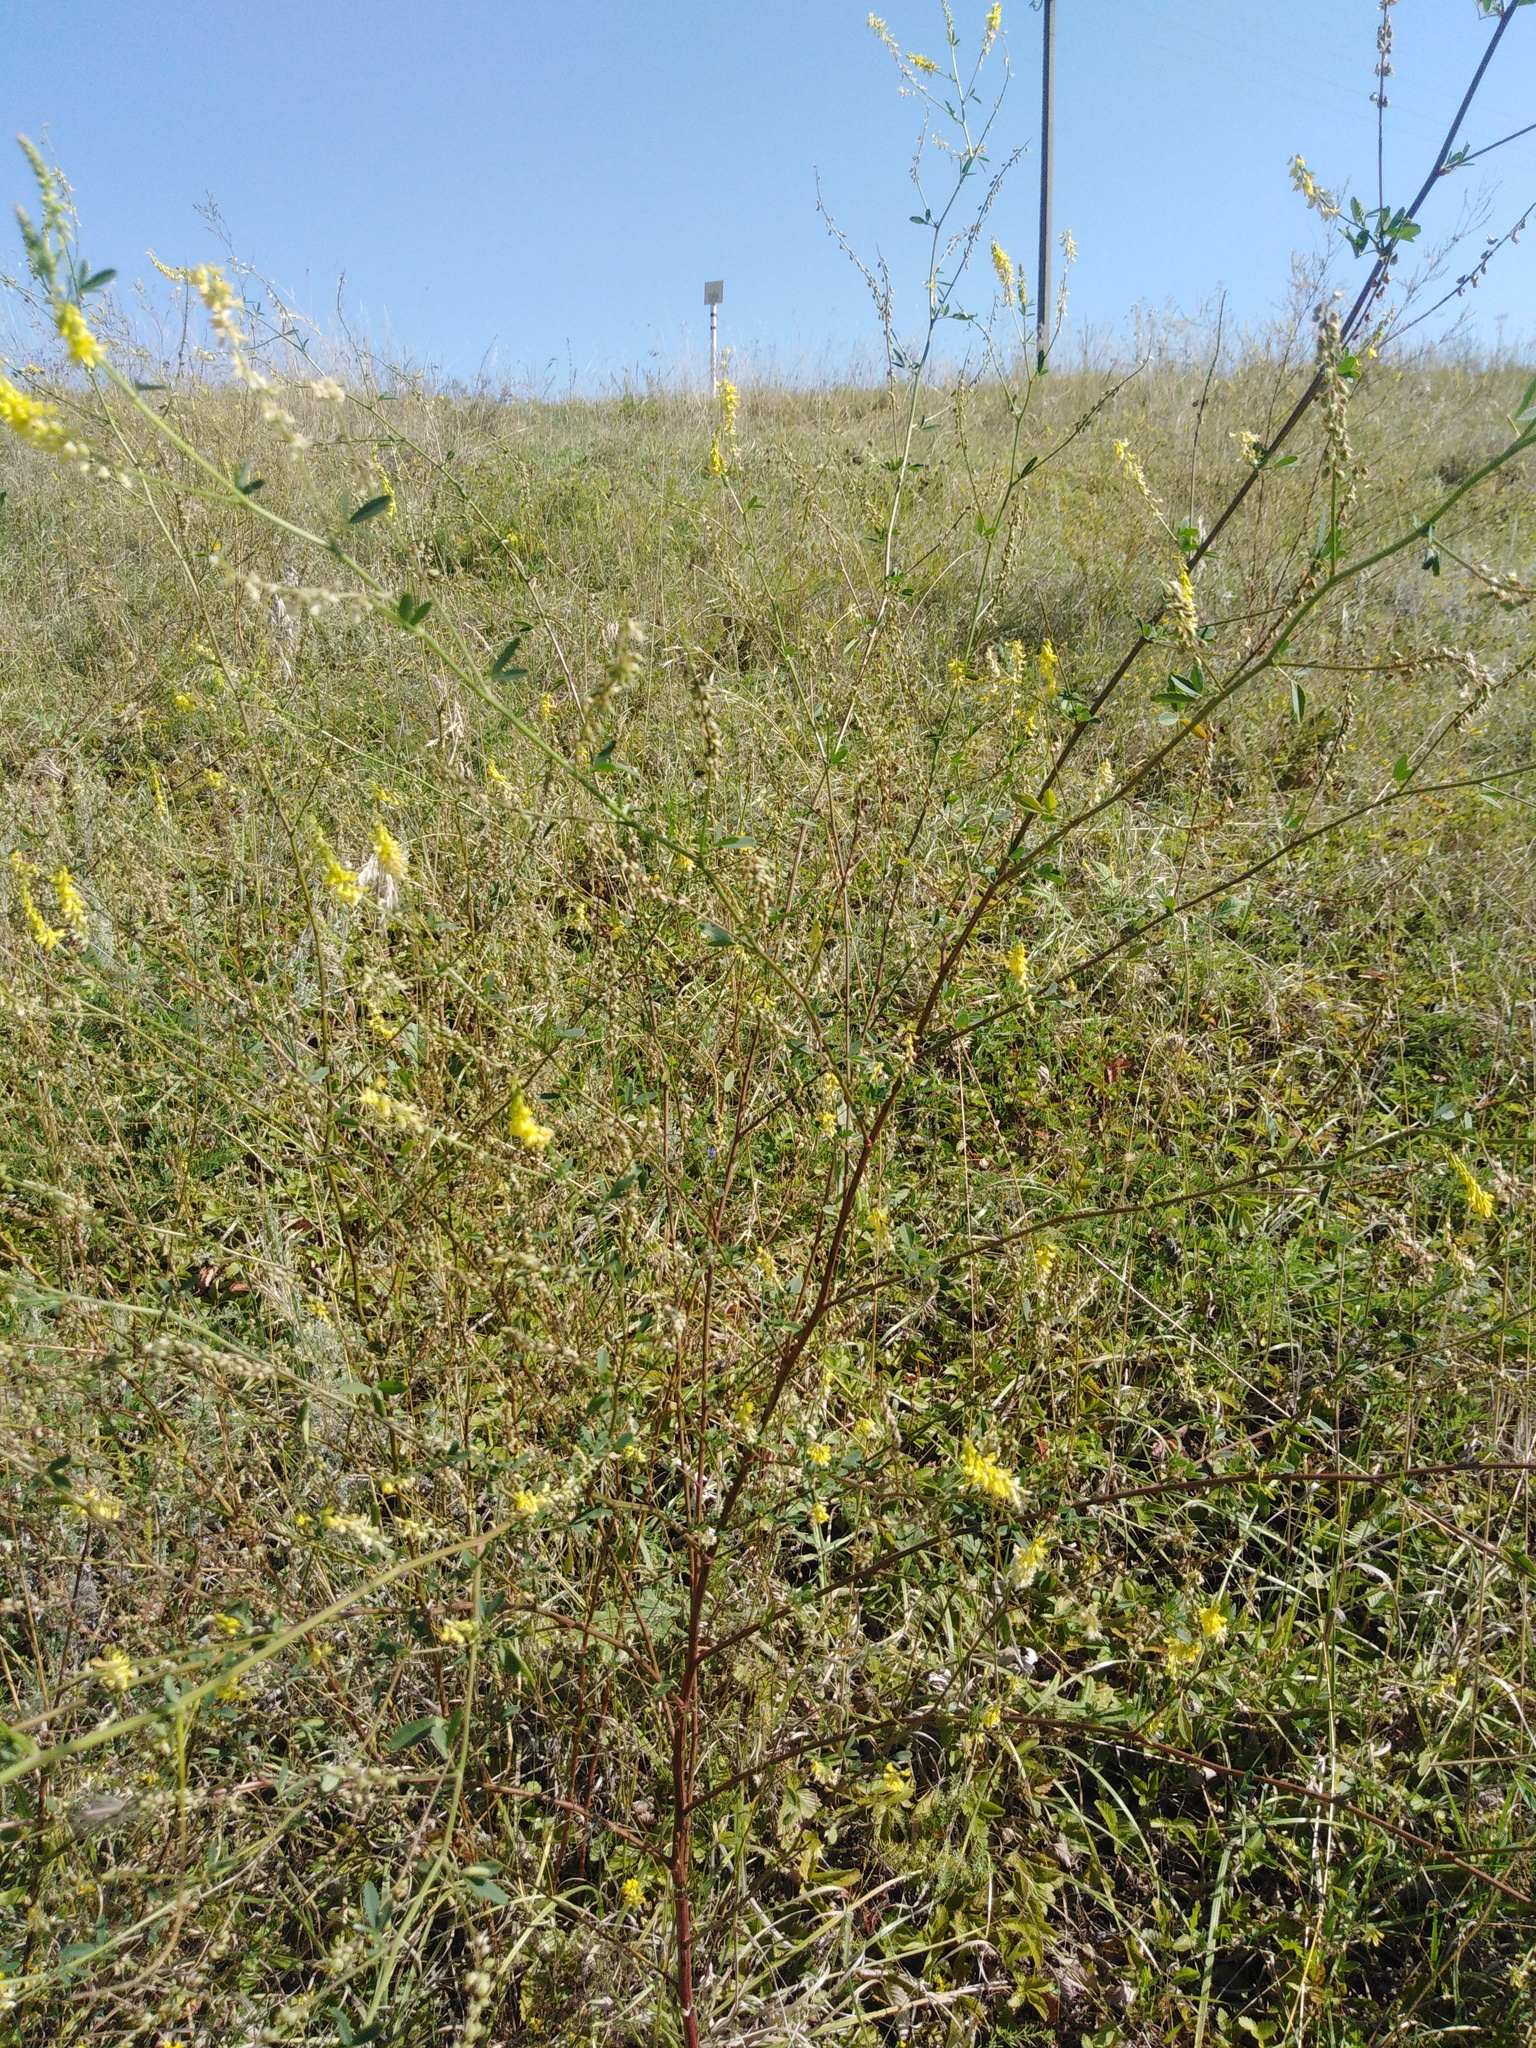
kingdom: Plantae
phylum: Tracheophyta
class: Magnoliopsida
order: Fabales
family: Fabaceae
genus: Melilotus
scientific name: Melilotus officinalis
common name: Sweetclover
